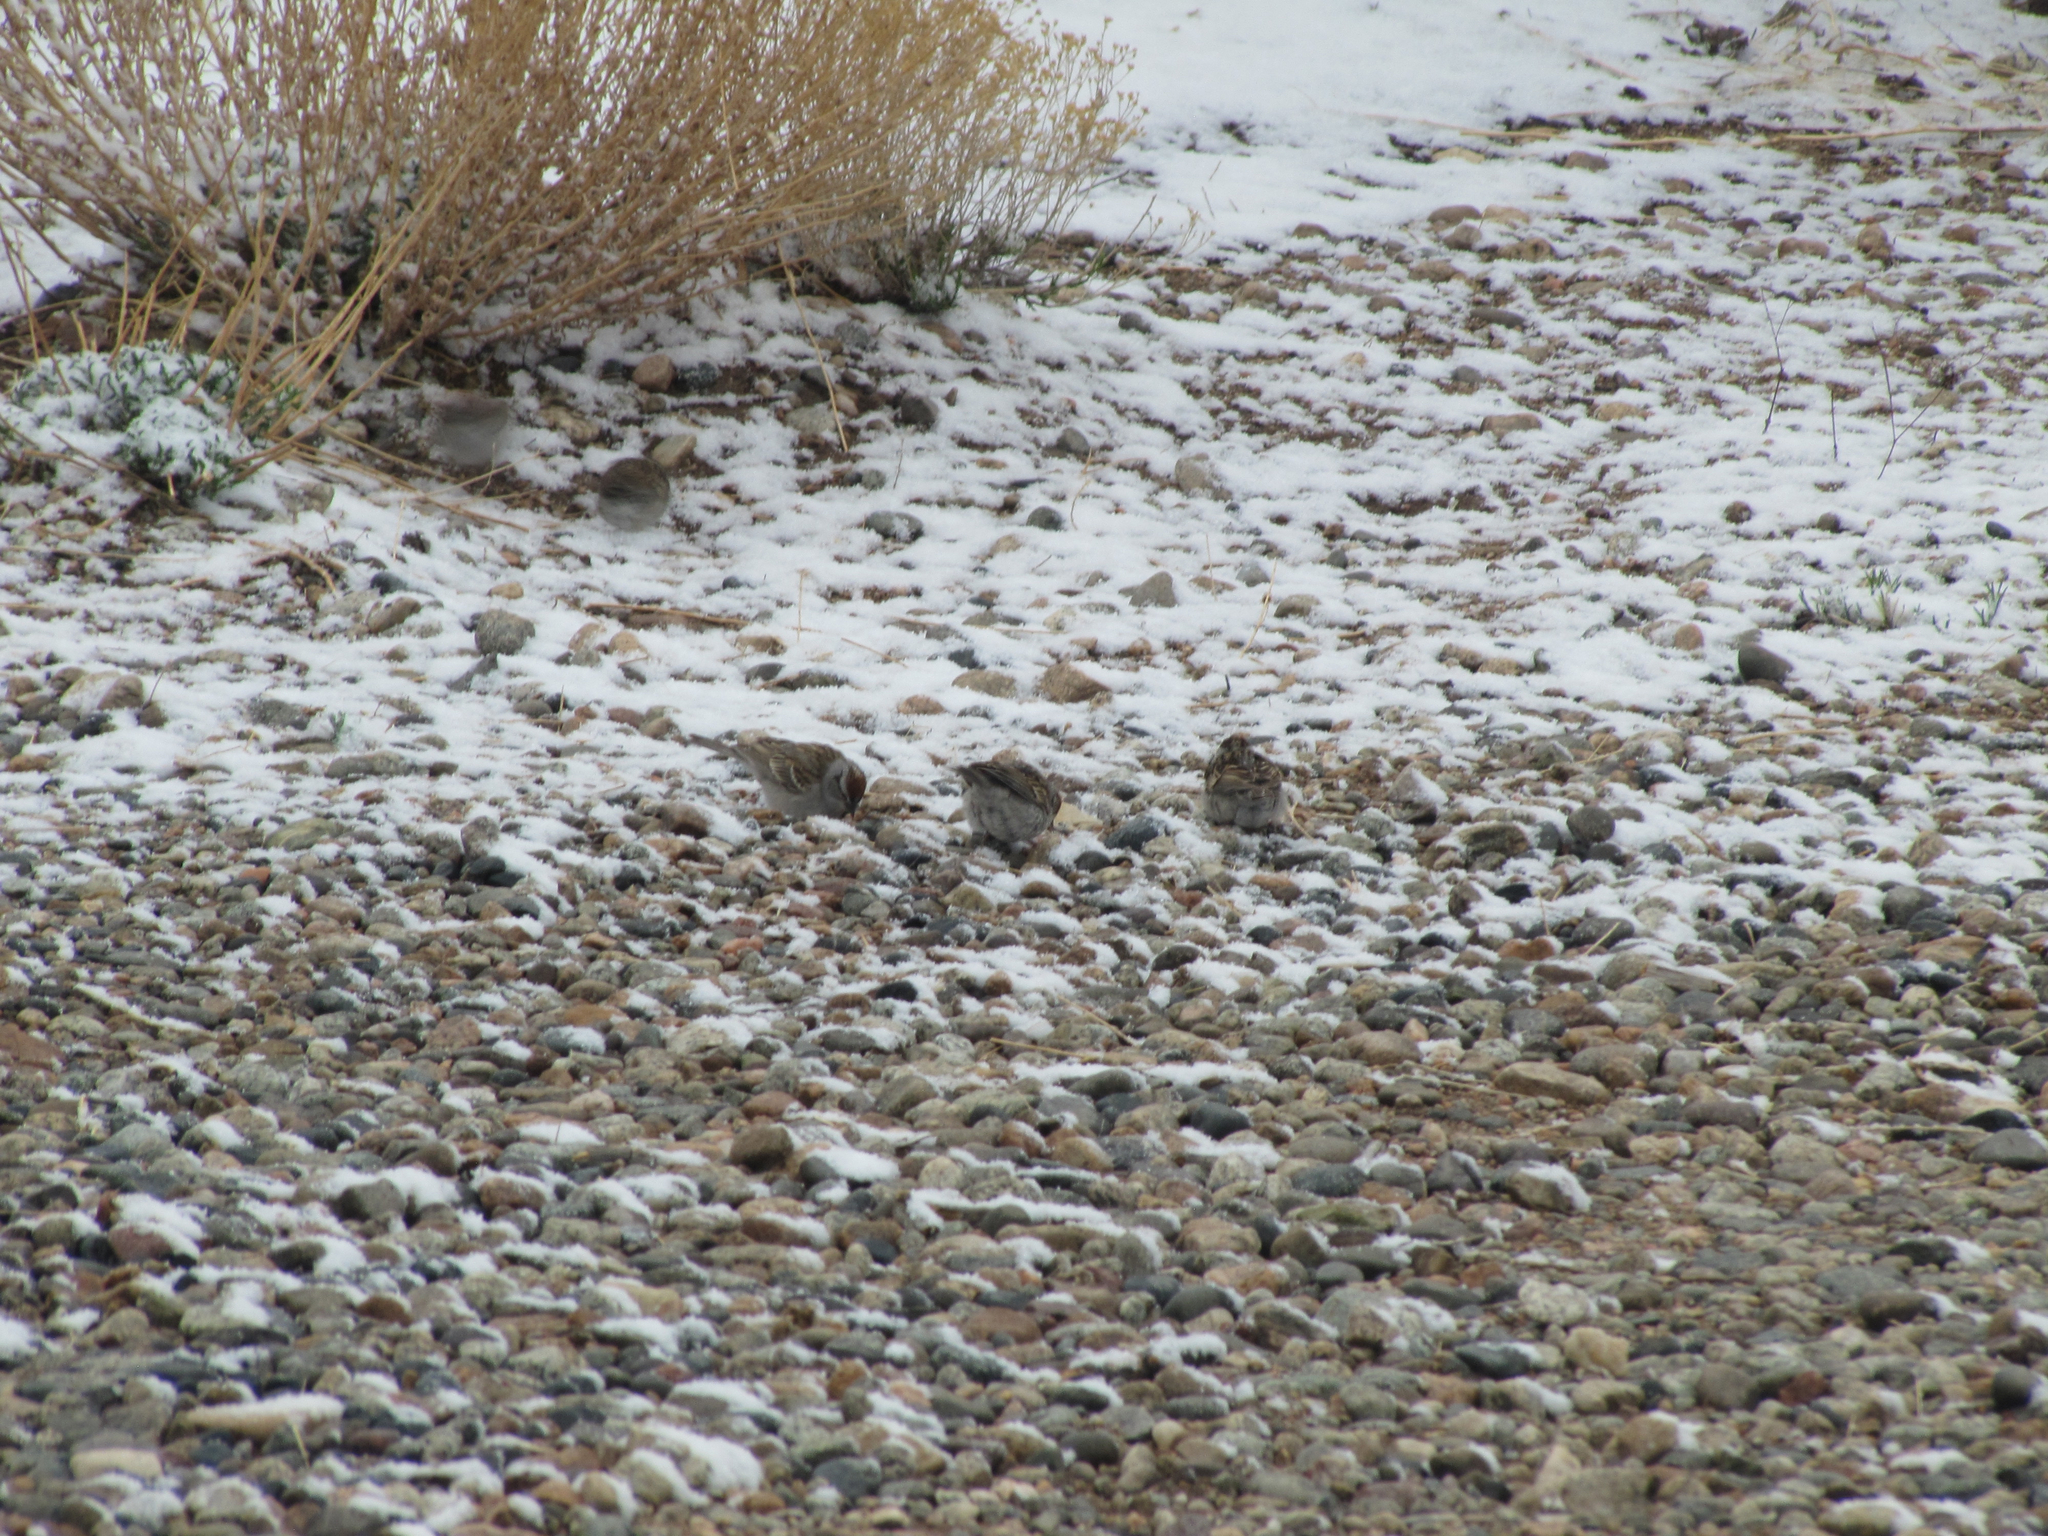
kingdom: Animalia
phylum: Chordata
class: Aves
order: Passeriformes
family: Passerellidae
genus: Spizella
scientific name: Spizella passerina
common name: Chipping sparrow
